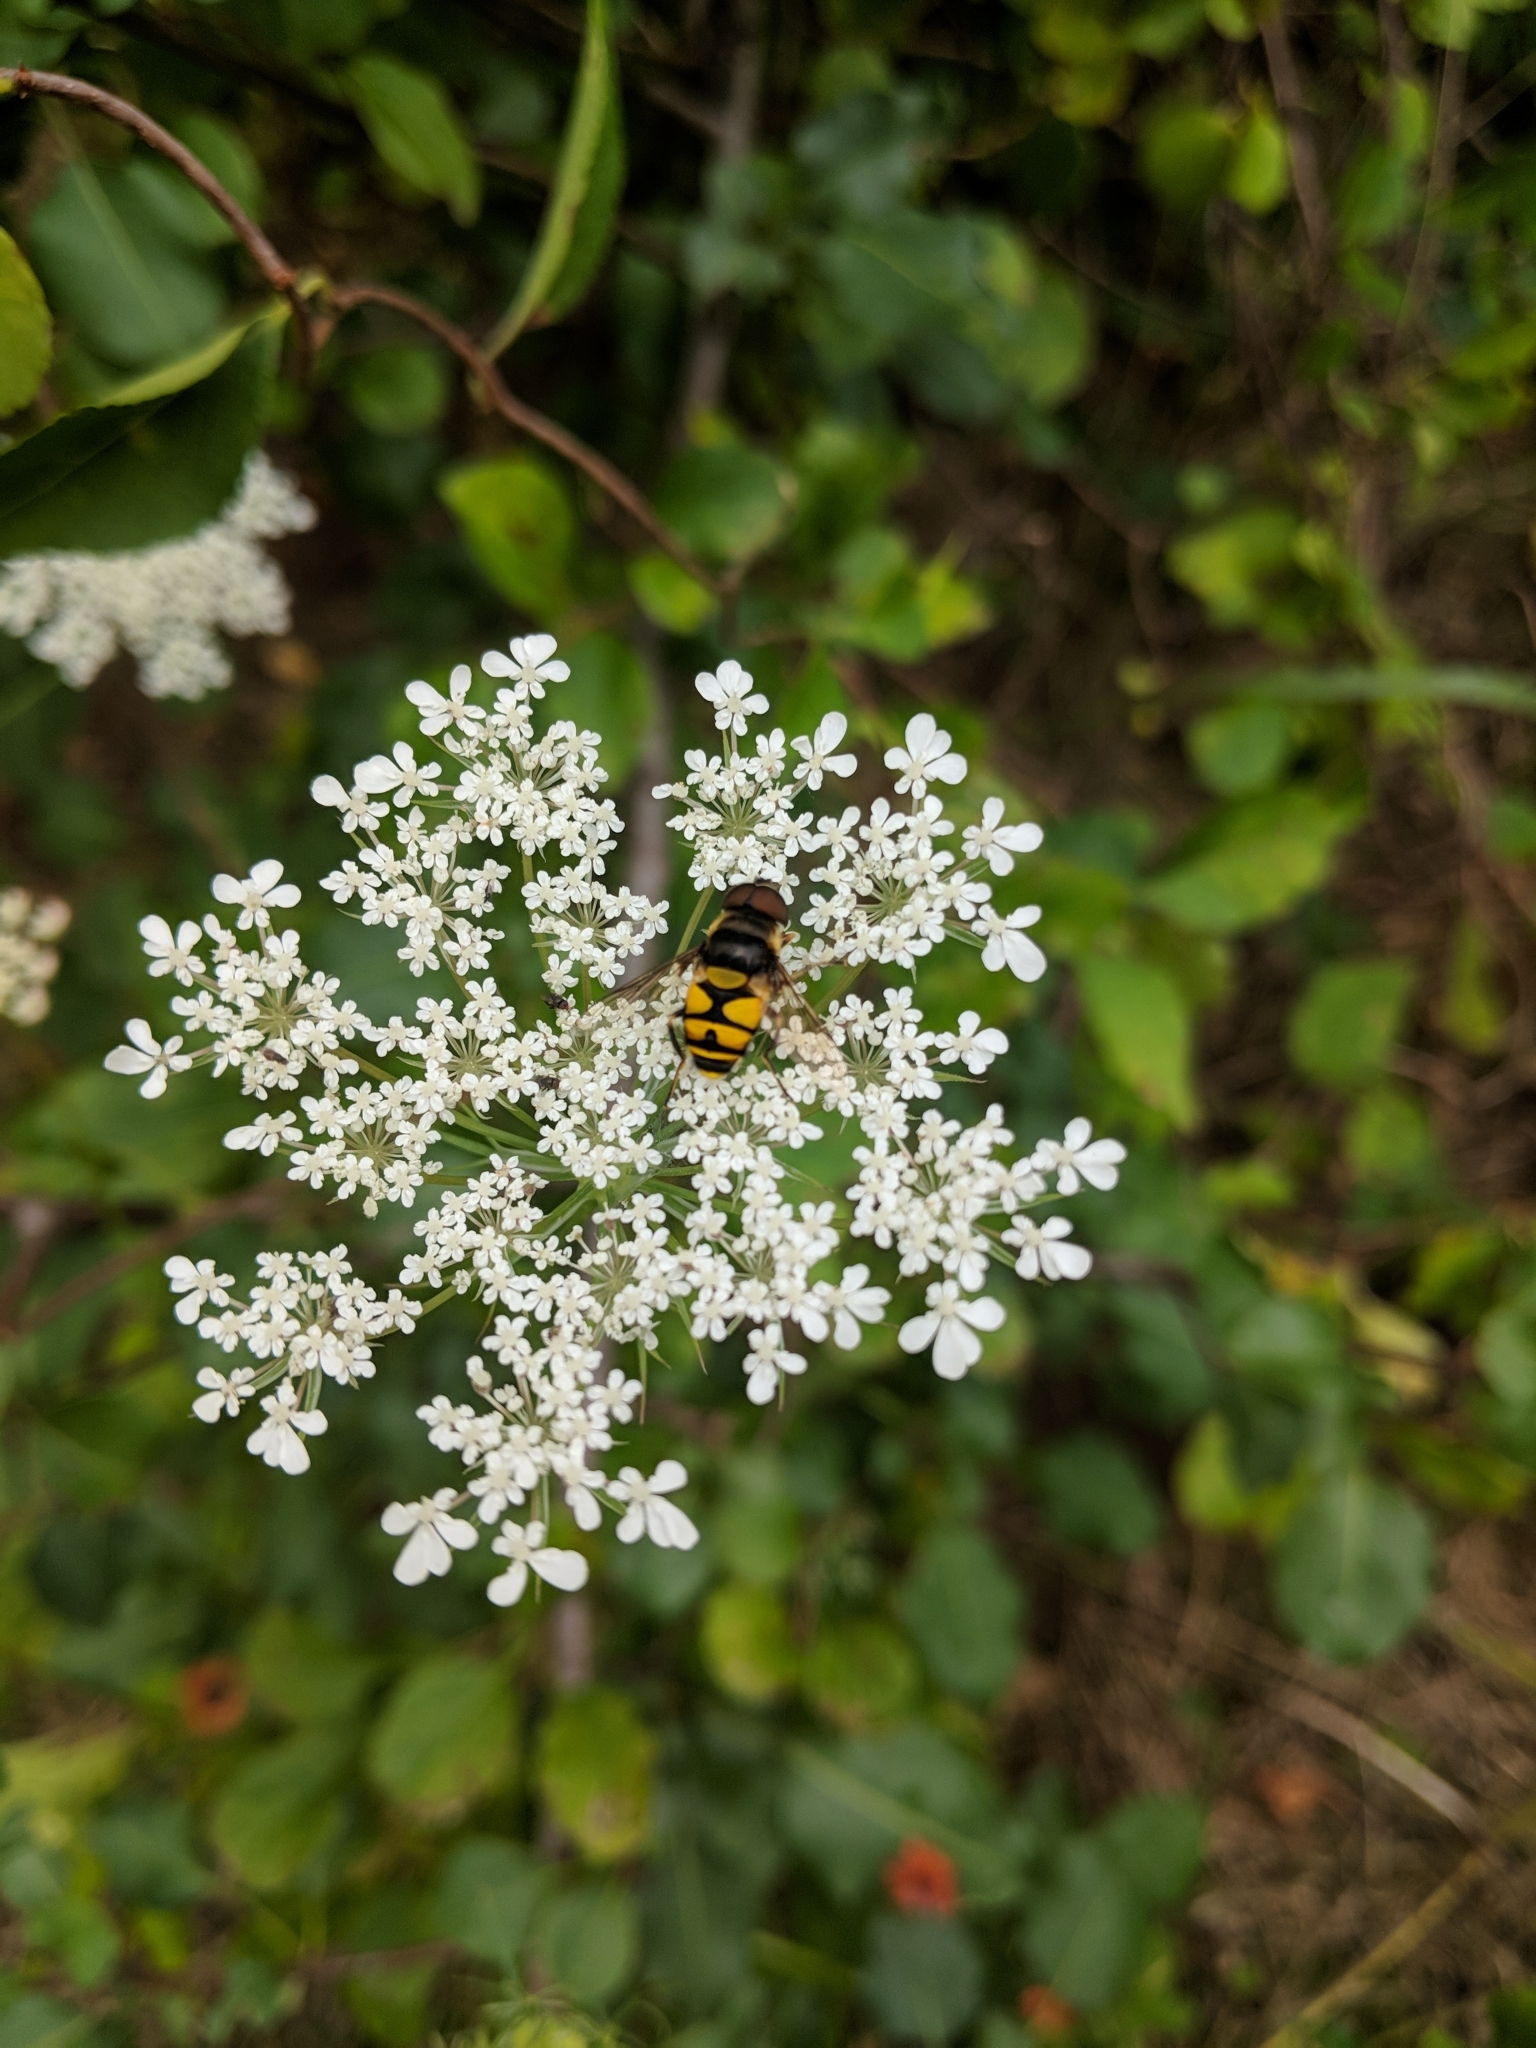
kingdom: Animalia
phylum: Arthropoda
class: Insecta
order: Diptera
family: Syrphidae
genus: Eristalis
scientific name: Eristalis transversa
